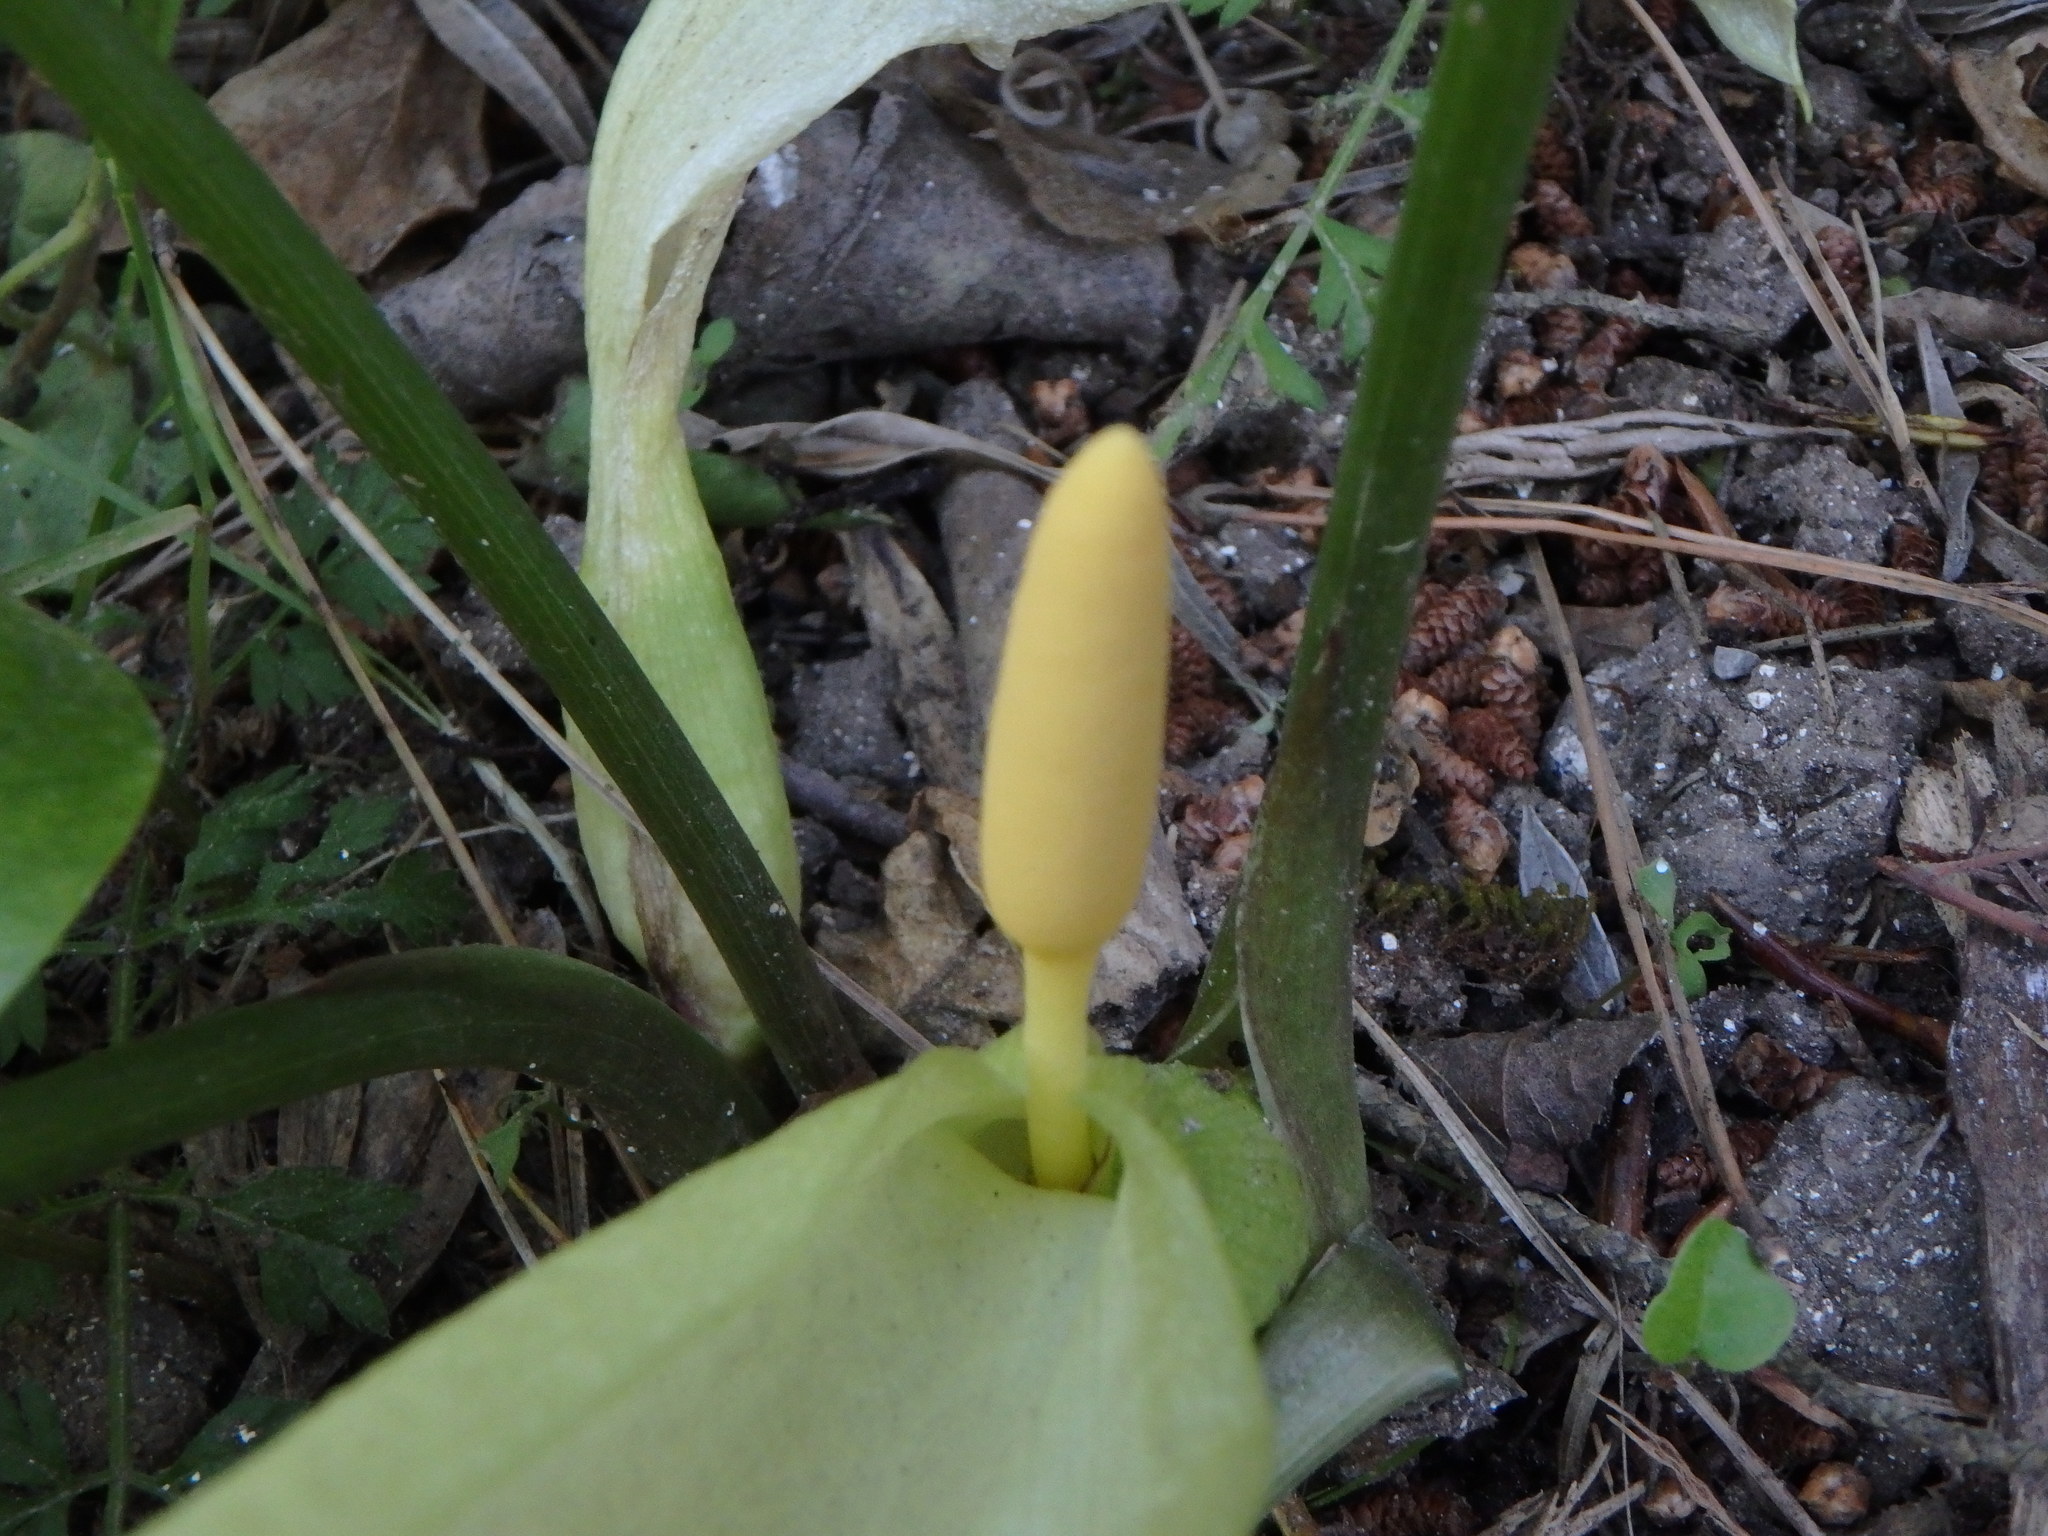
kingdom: Plantae
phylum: Tracheophyta
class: Liliopsida
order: Alismatales
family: Araceae
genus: Arum
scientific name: Arum italicum
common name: Italian lords-and-ladies
